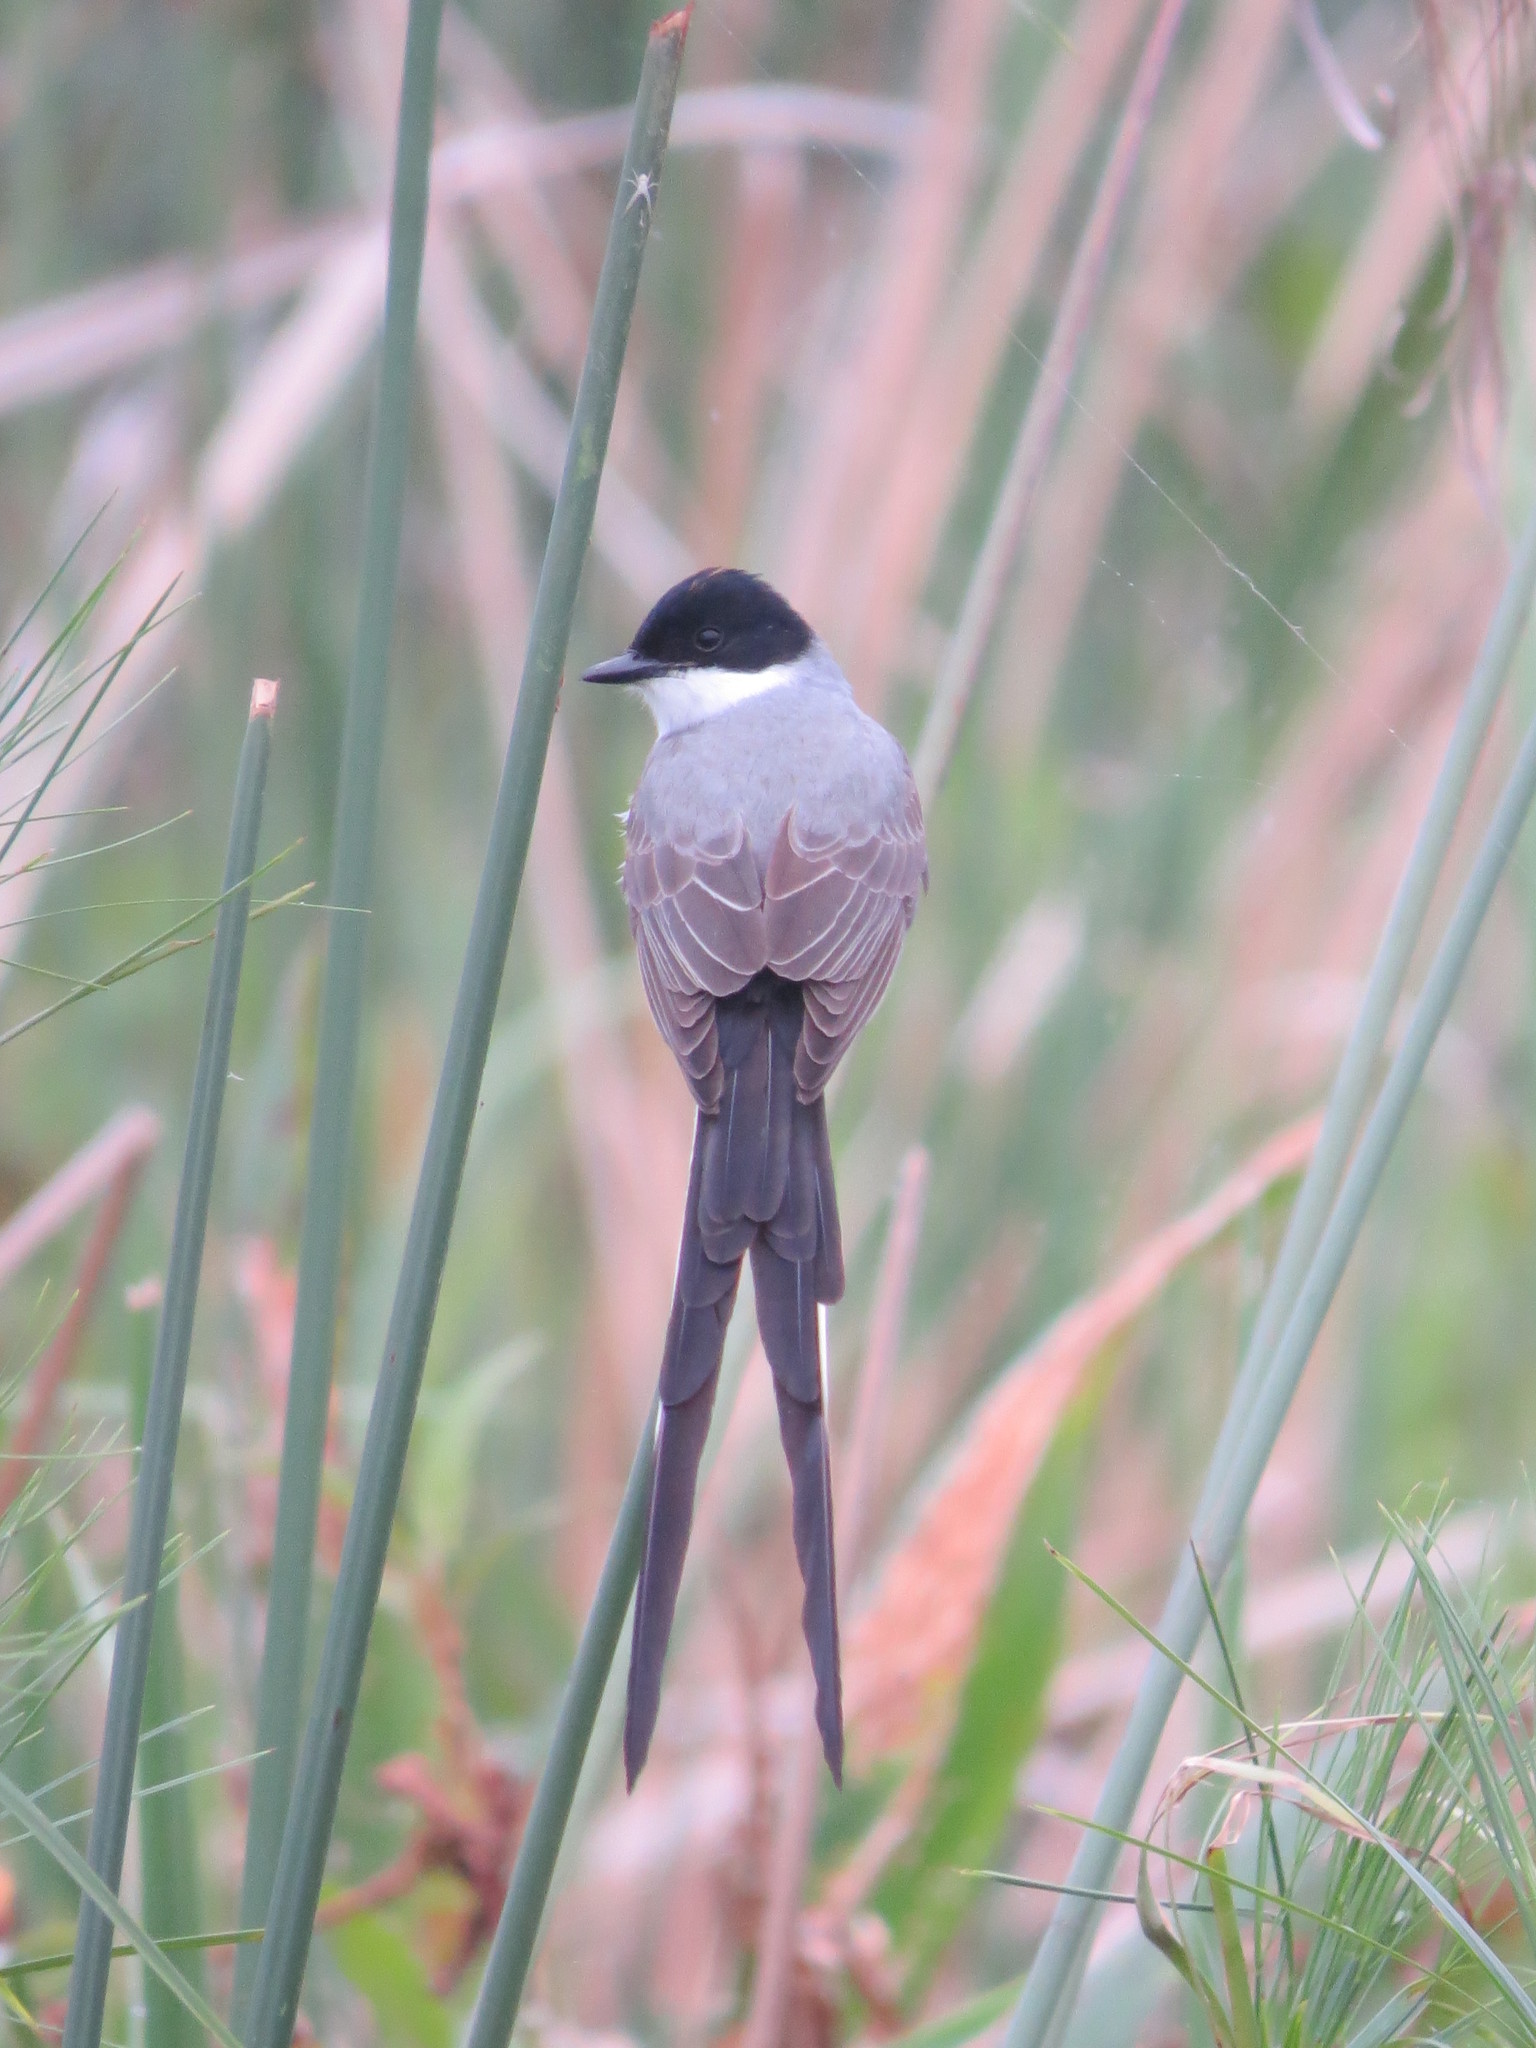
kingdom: Animalia
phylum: Chordata
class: Aves
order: Passeriformes
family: Tyrannidae
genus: Tyrannus
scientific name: Tyrannus savana
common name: Fork-tailed flycatcher
